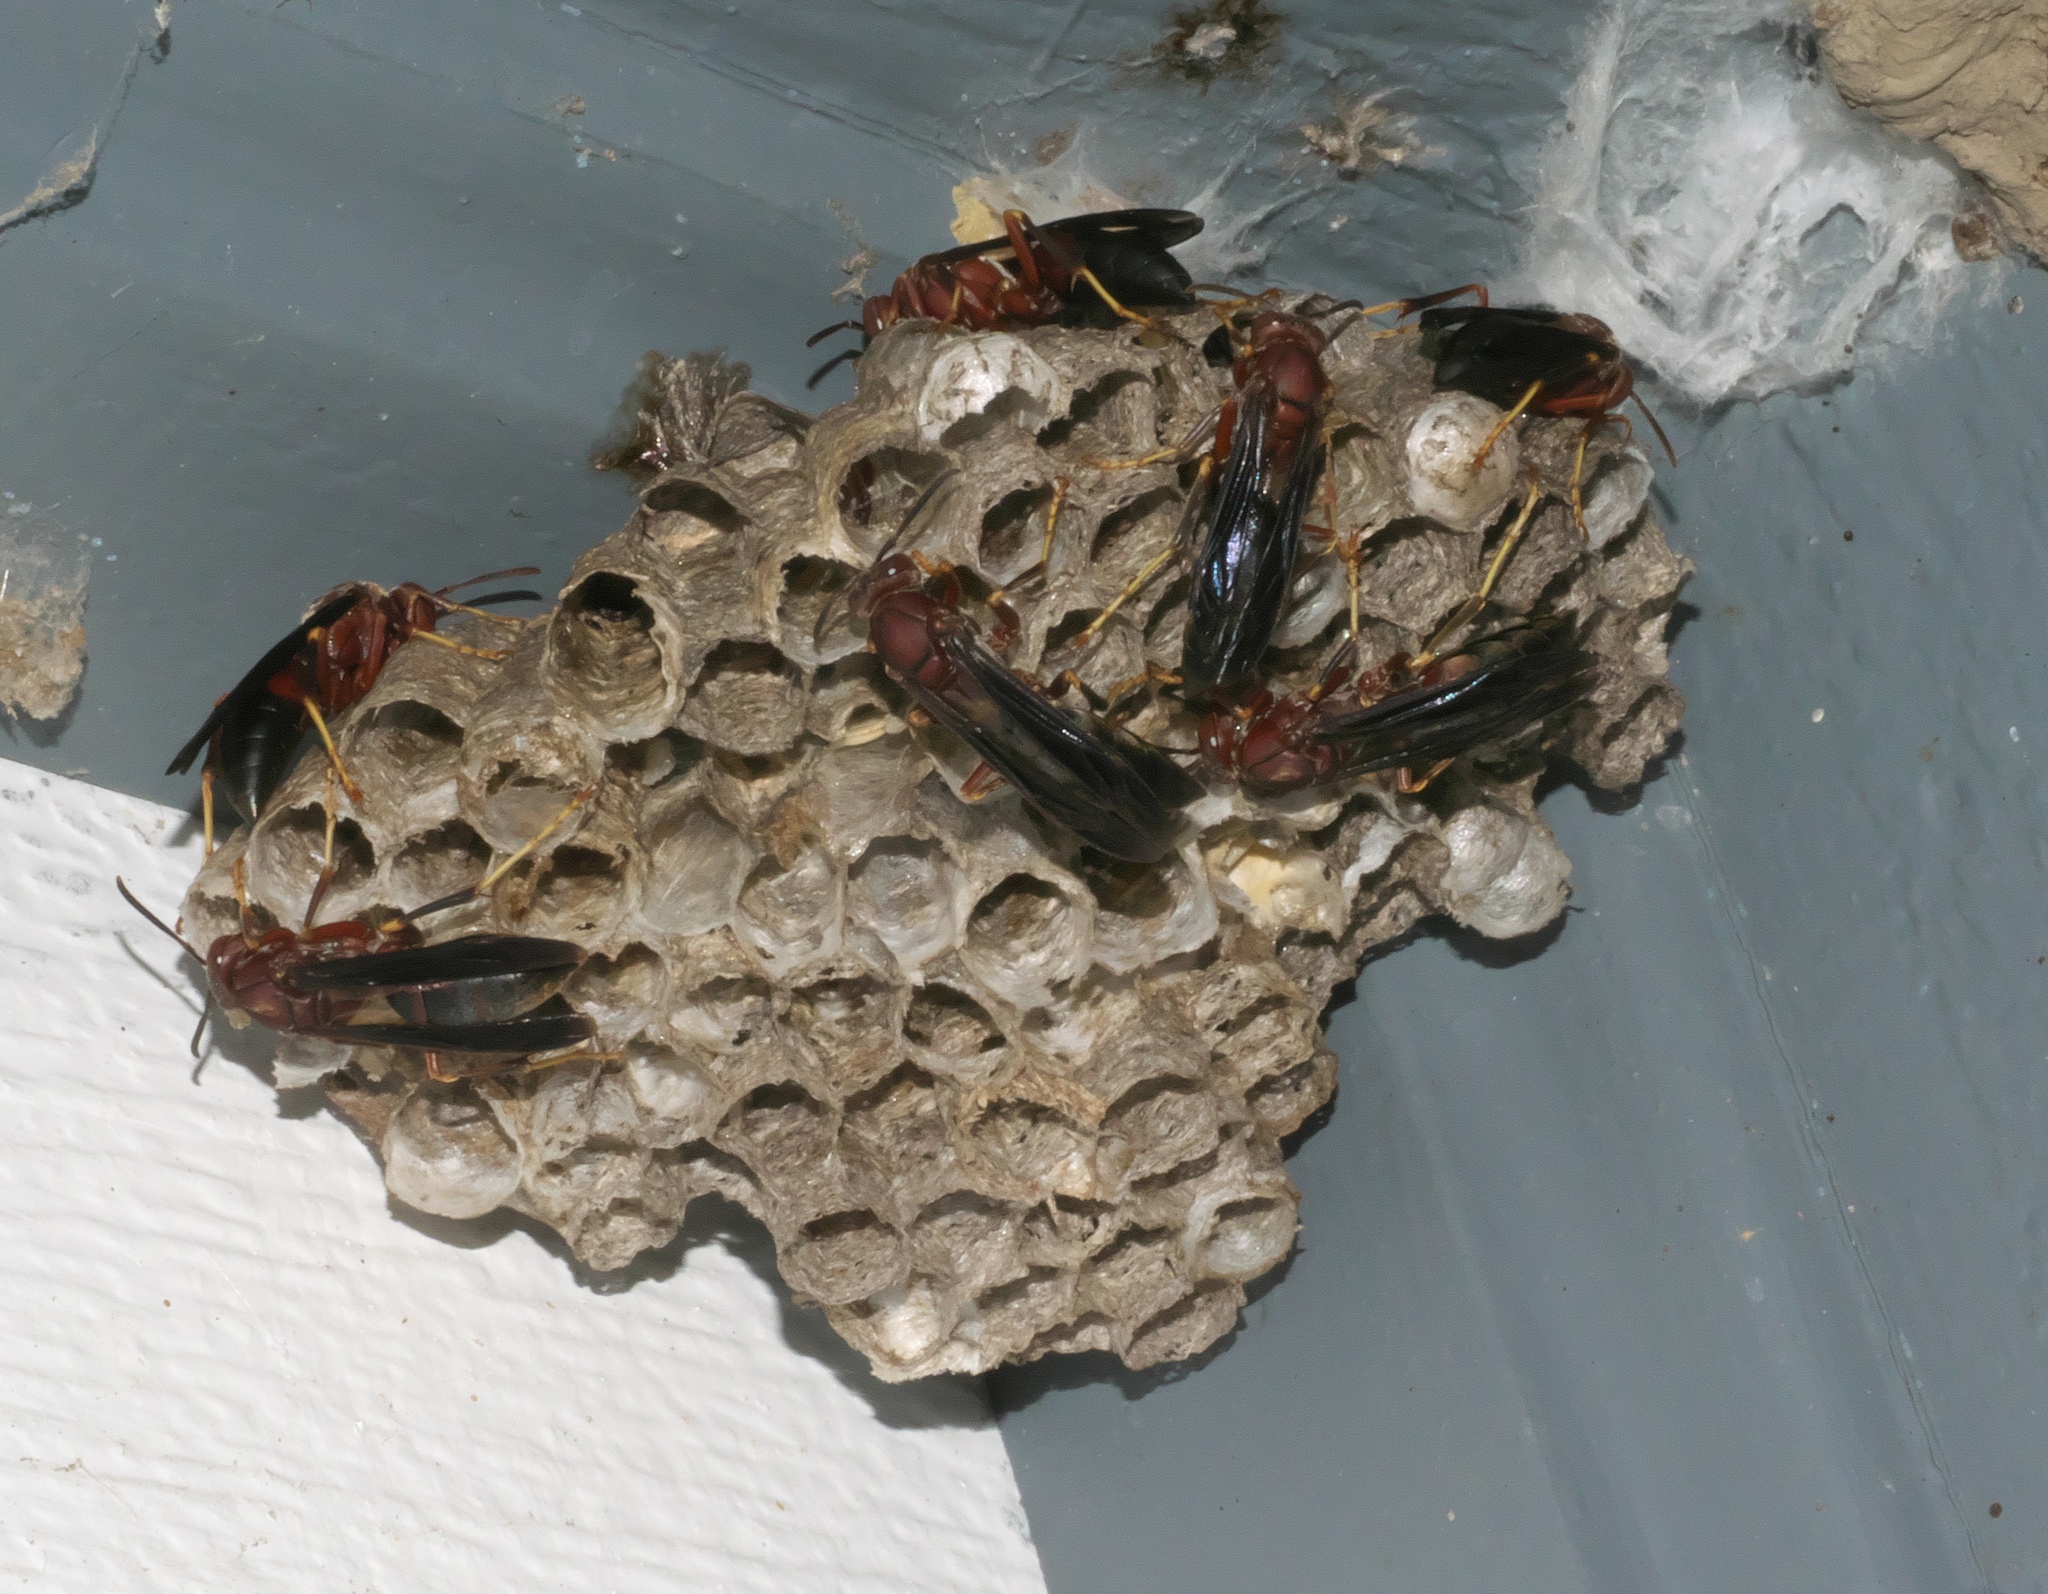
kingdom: Animalia
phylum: Arthropoda
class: Insecta
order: Hymenoptera
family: Eumenidae
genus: Polistes
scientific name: Polistes metricus
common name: Metric paper wasp
